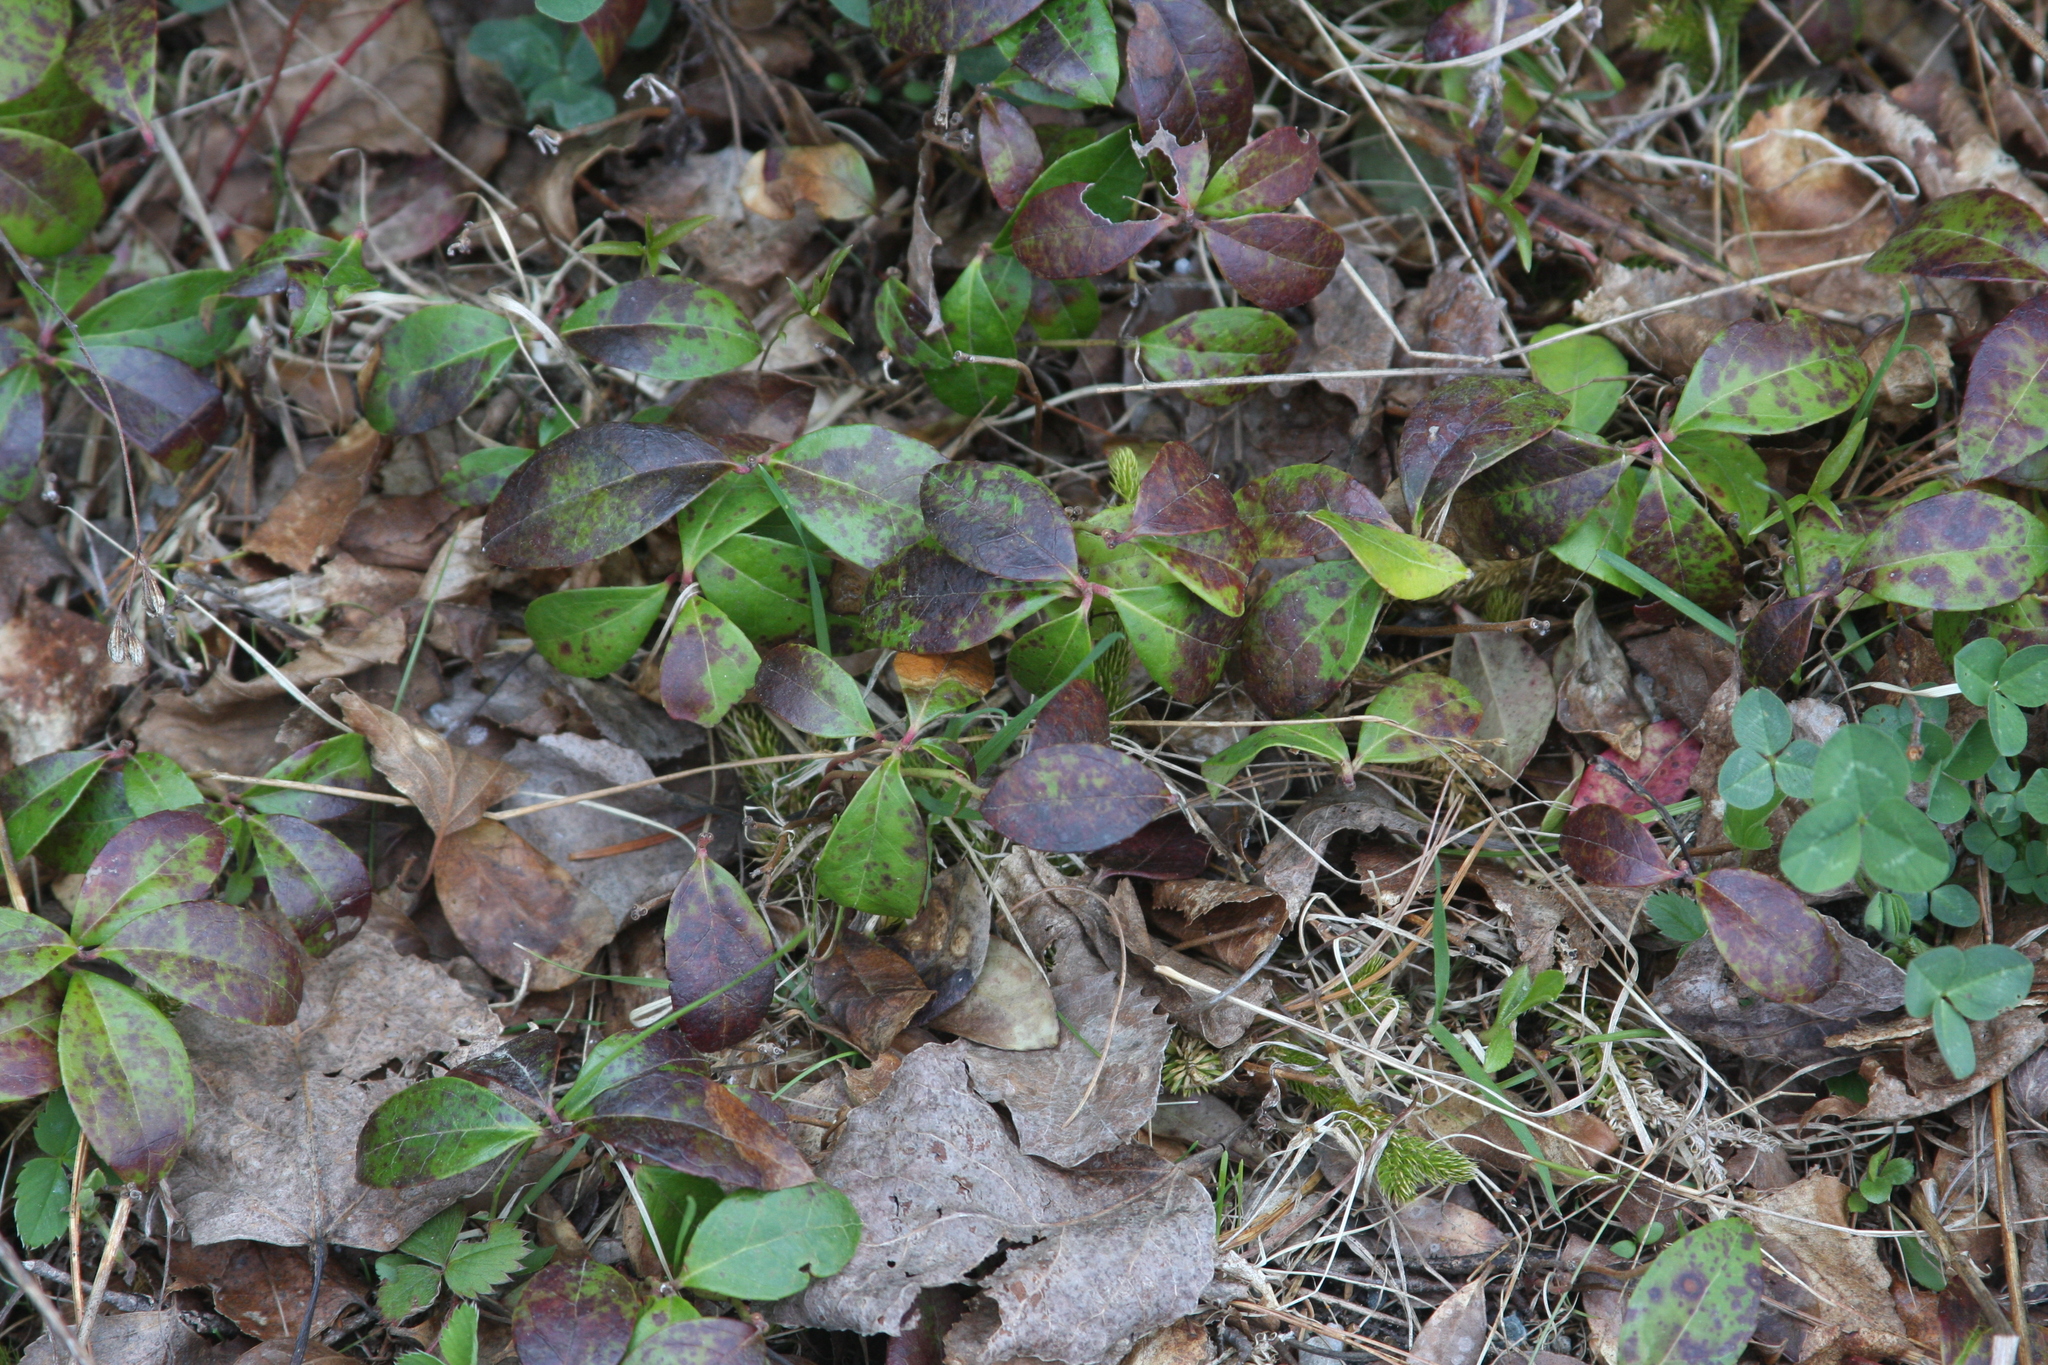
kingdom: Plantae
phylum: Tracheophyta
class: Magnoliopsida
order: Ericales
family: Ericaceae
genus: Gaultheria
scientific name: Gaultheria procumbens
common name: Checkerberry
